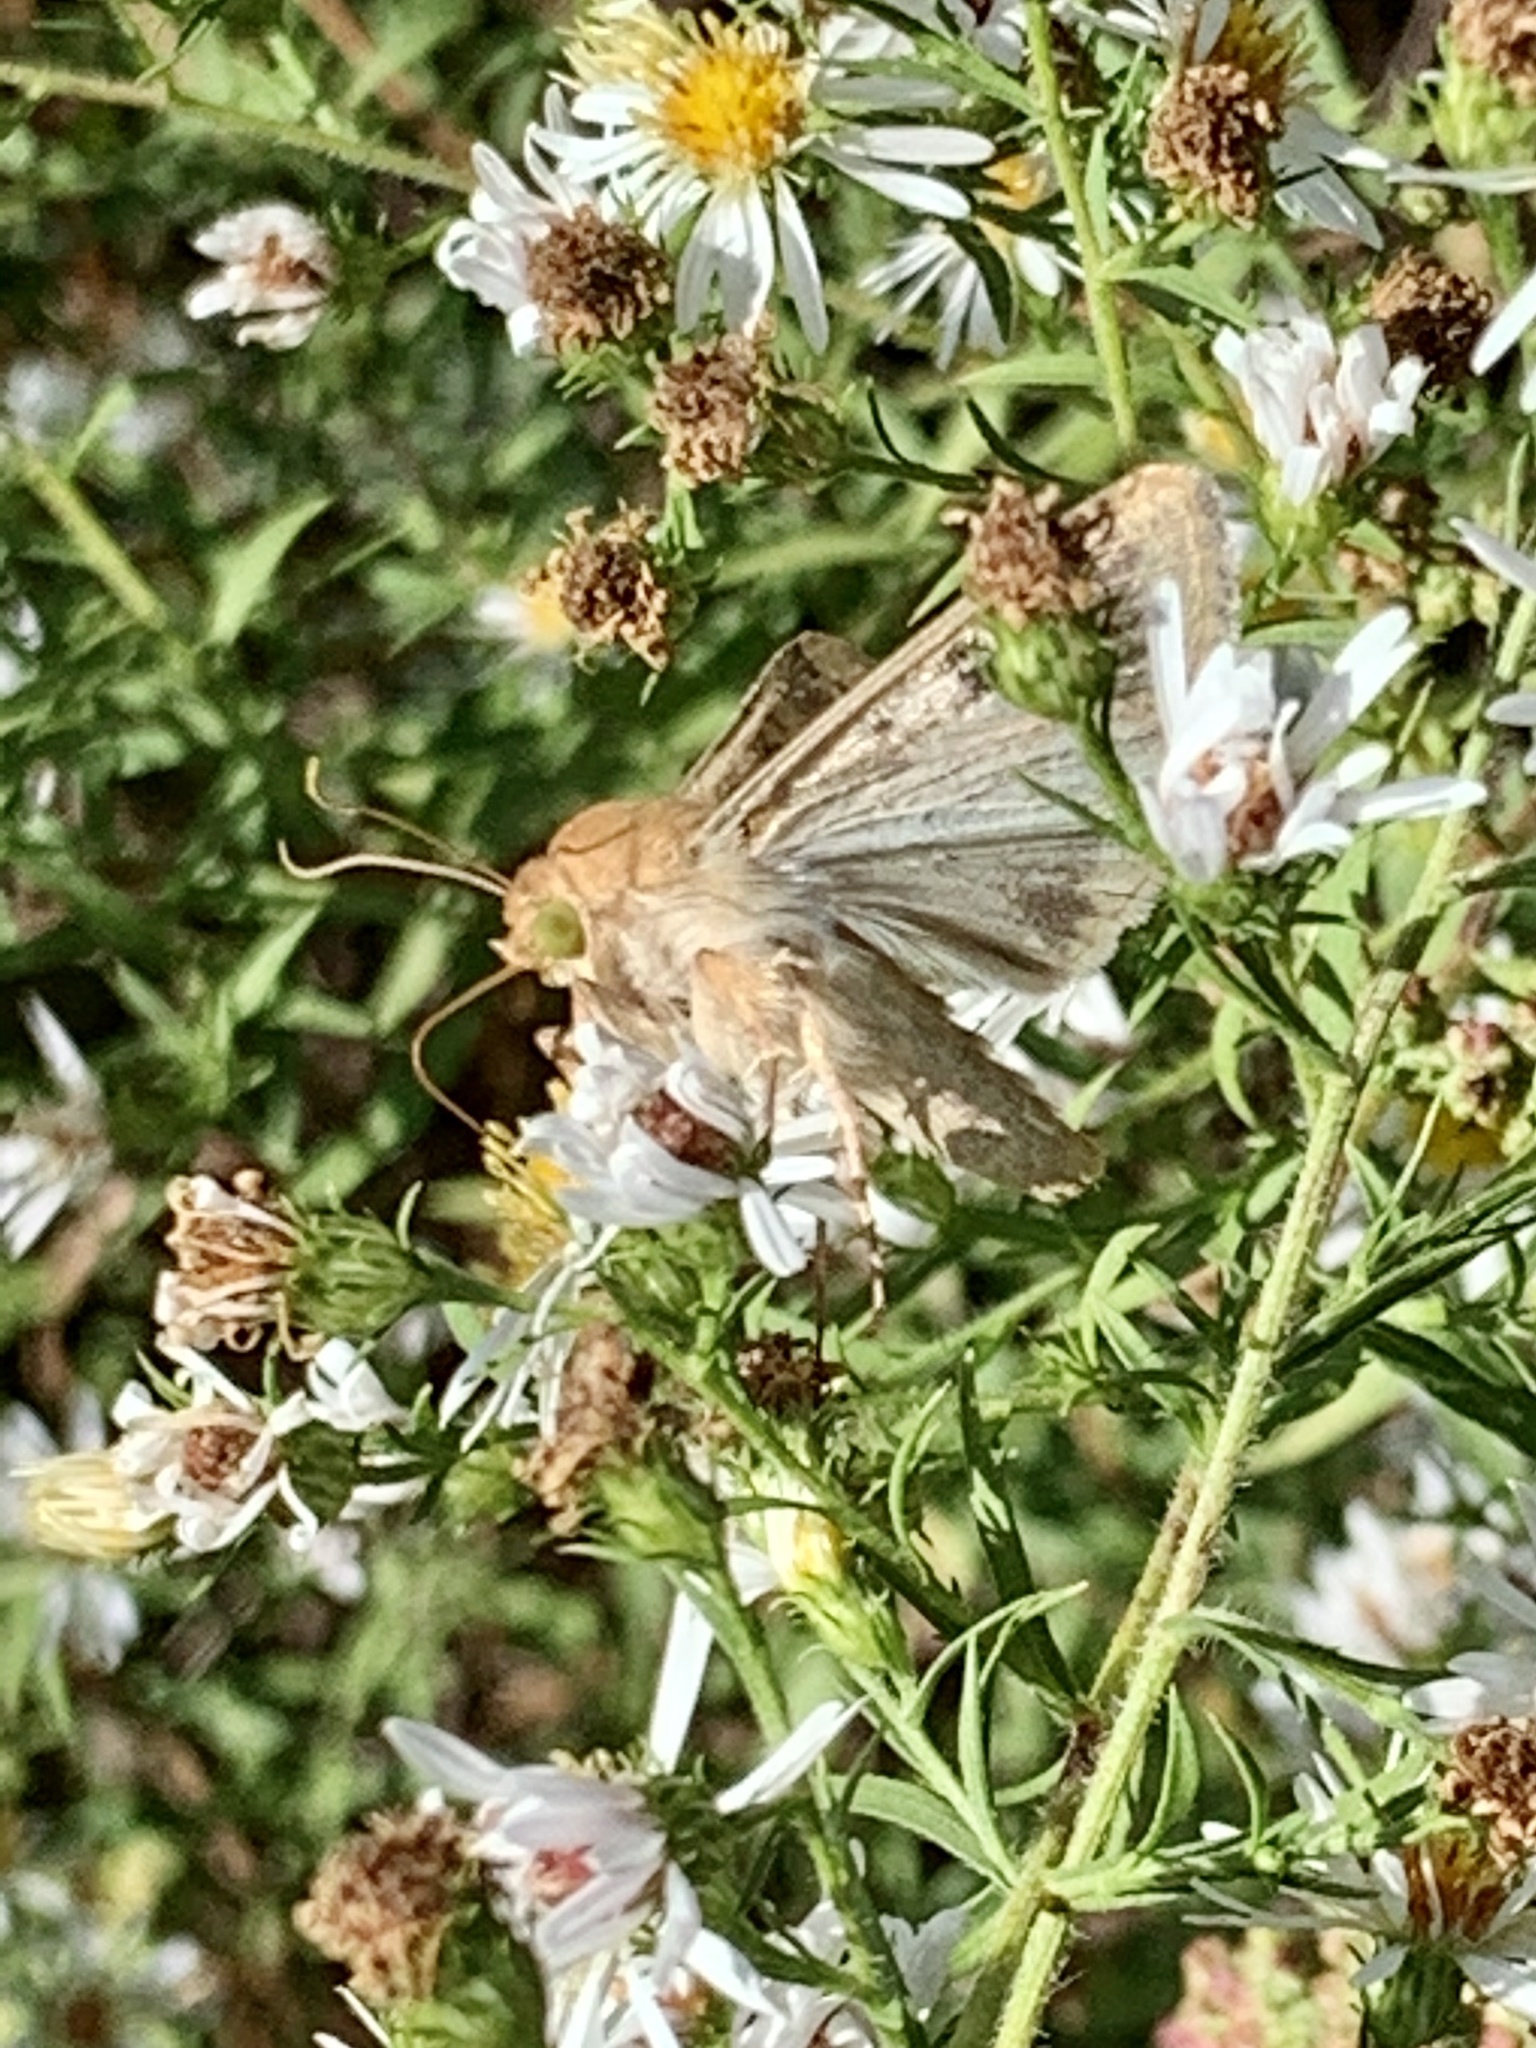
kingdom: Animalia
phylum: Arthropoda
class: Insecta
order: Lepidoptera
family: Noctuidae
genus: Helicoverpa
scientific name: Helicoverpa zea
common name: Bollworm
